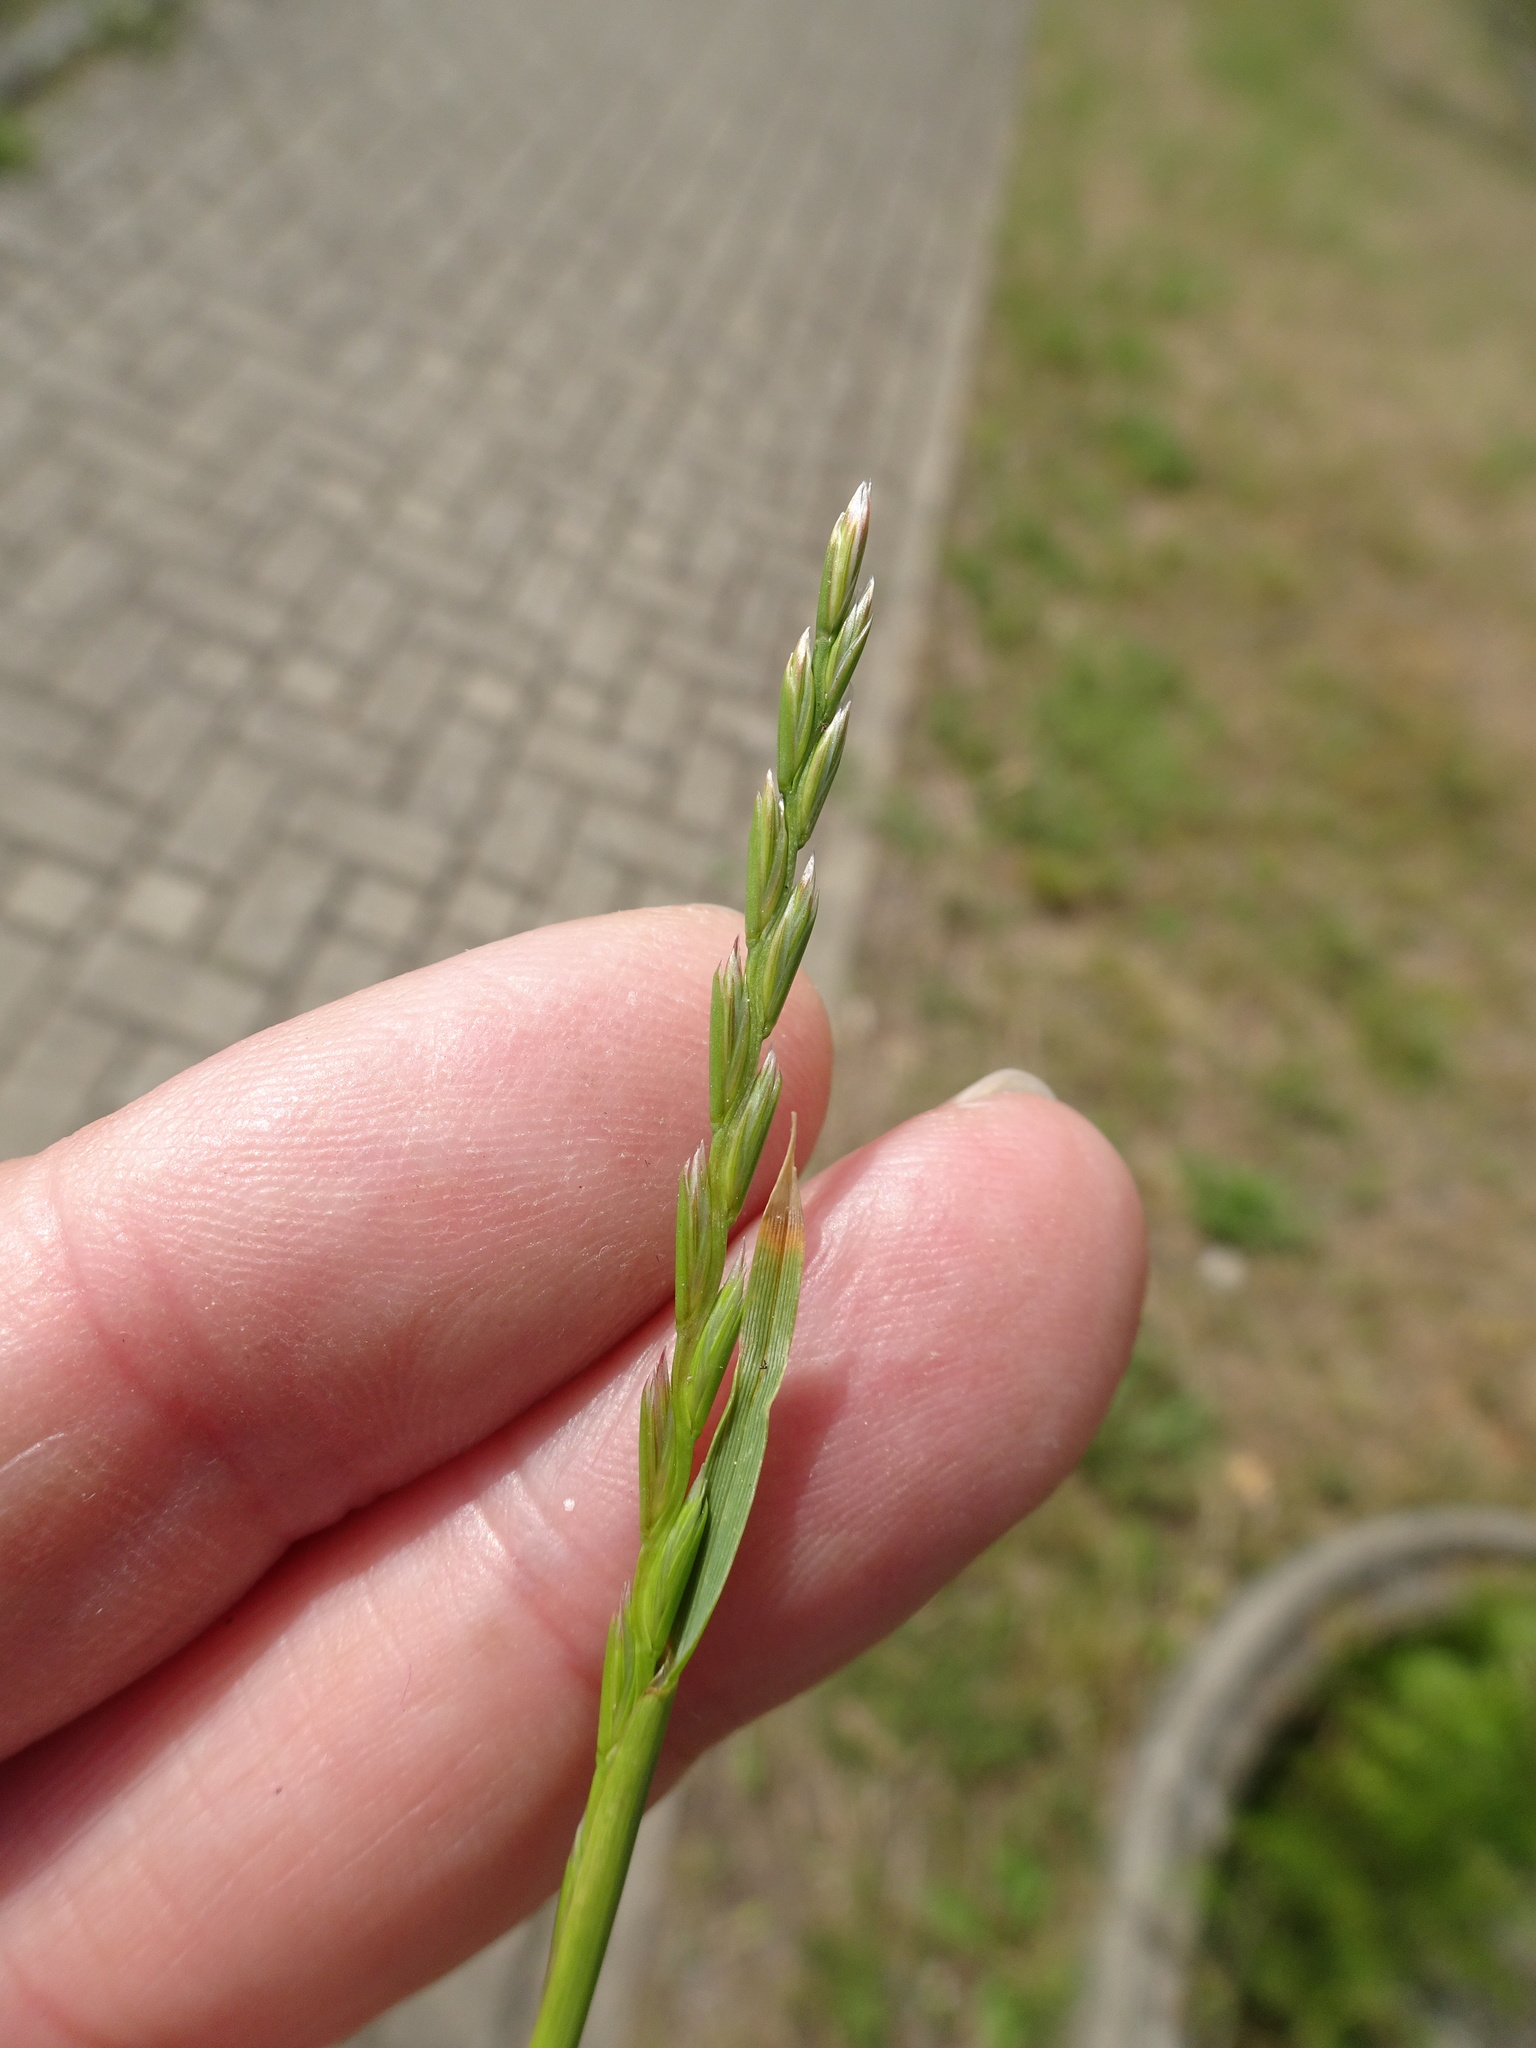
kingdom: Plantae
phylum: Tracheophyta
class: Liliopsida
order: Poales
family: Poaceae
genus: Lolium
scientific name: Lolium perenne
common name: Perennial ryegrass
